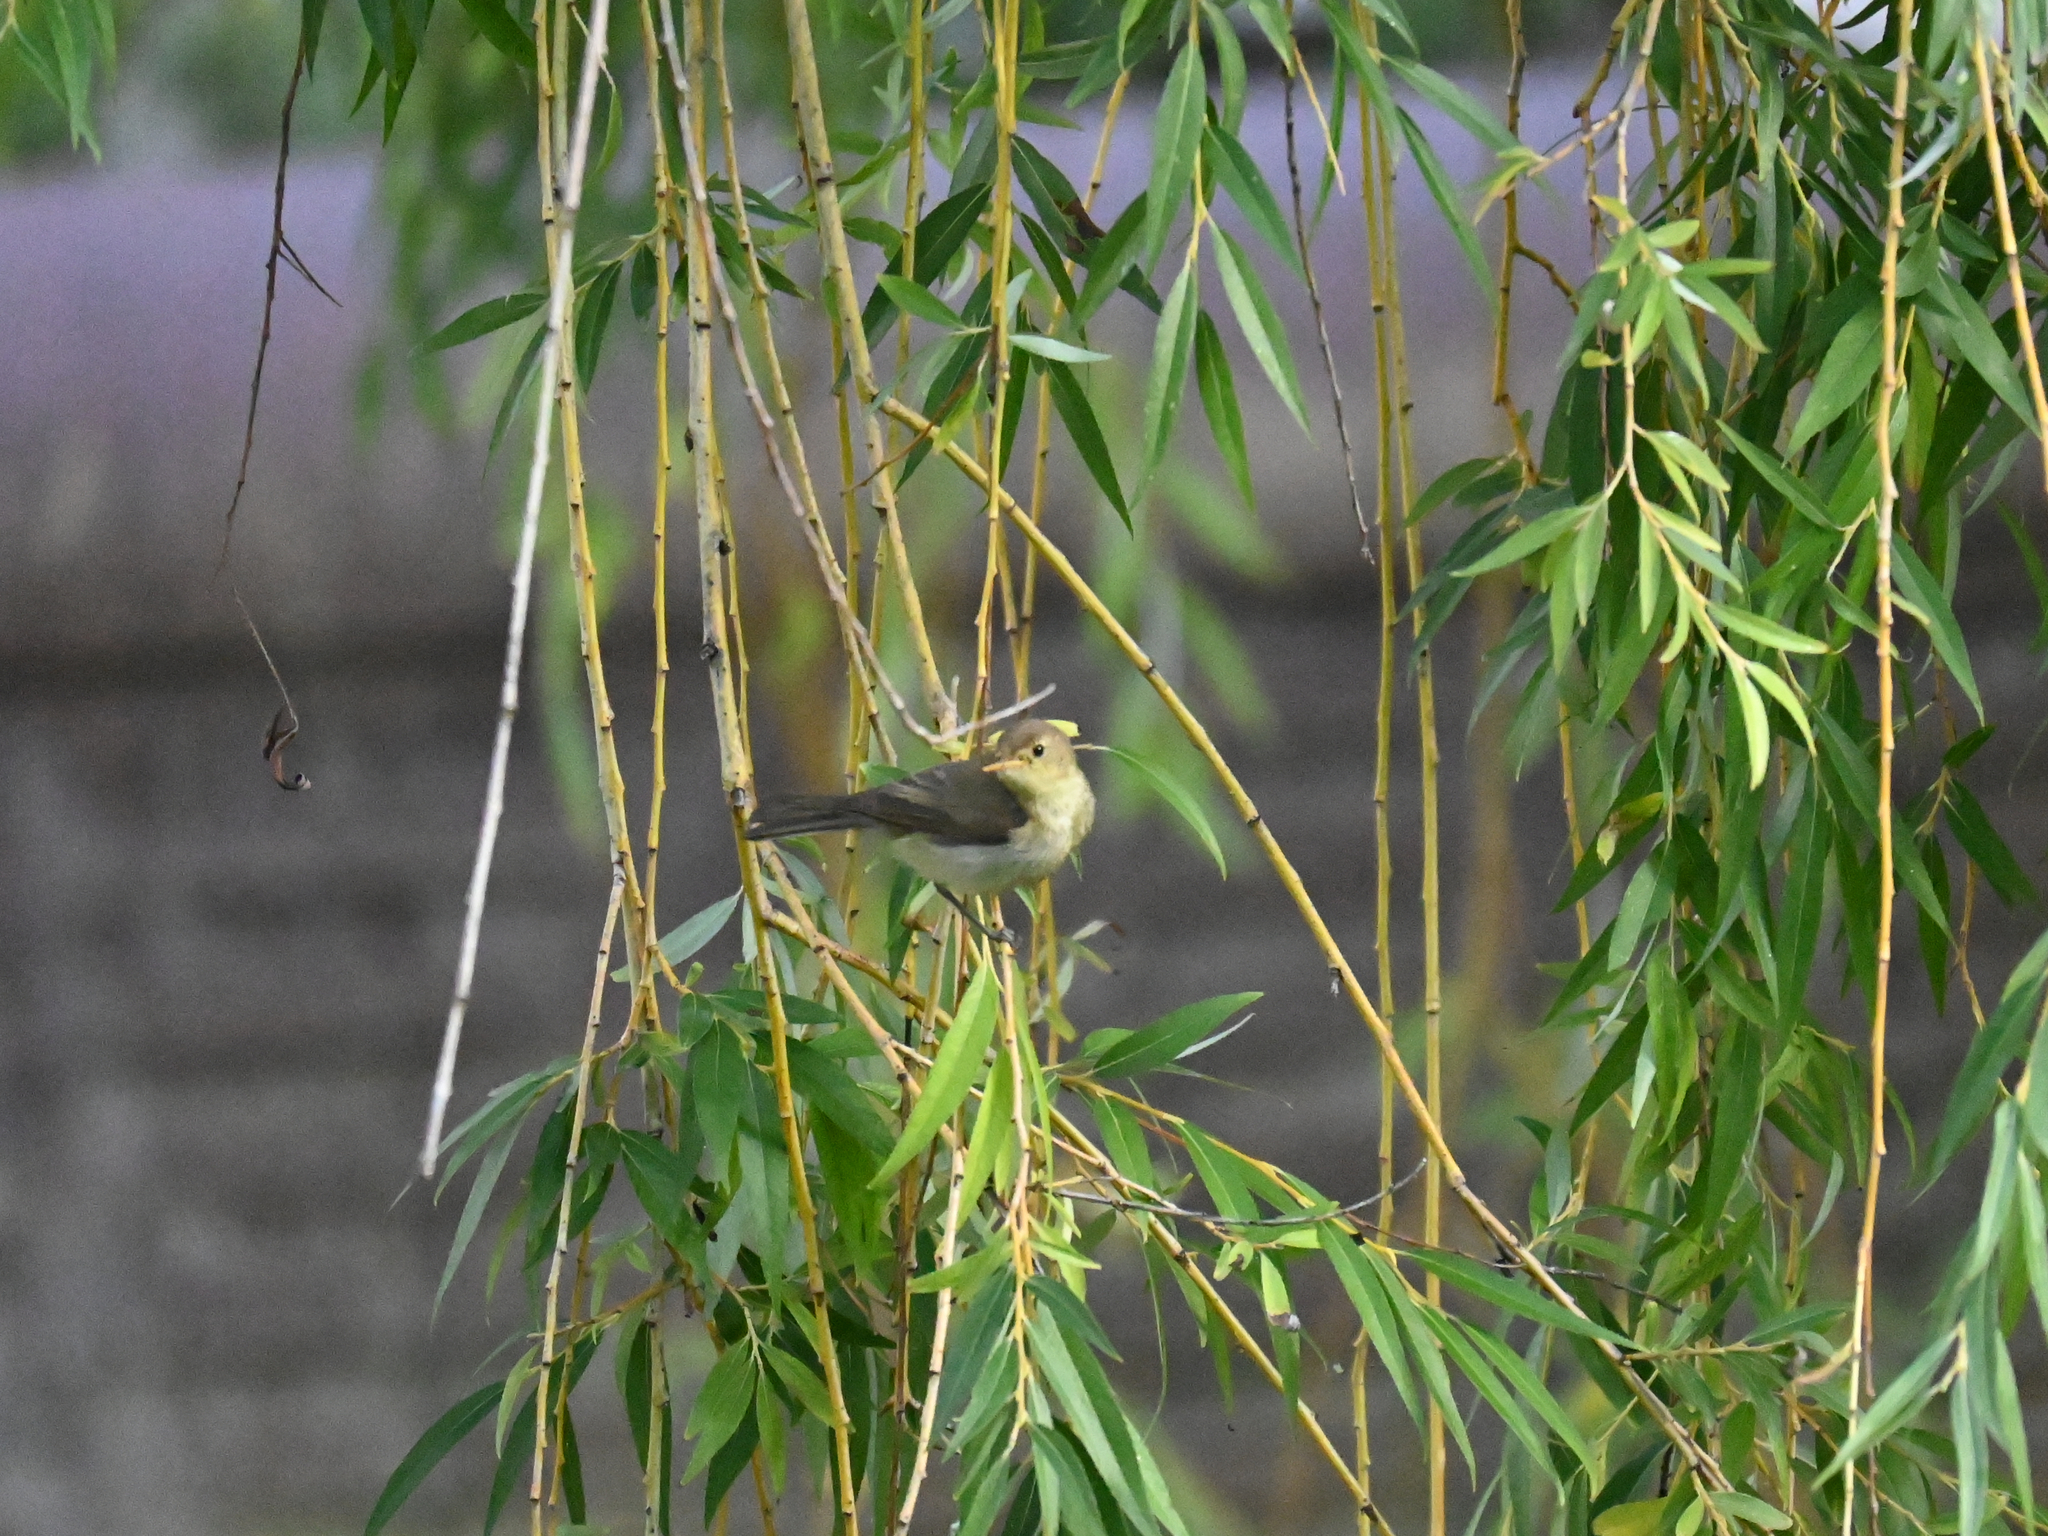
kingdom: Animalia
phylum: Chordata
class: Aves
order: Passeriformes
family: Acrocephalidae
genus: Hippolais
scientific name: Hippolais polyglotta
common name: Melodious warbler
